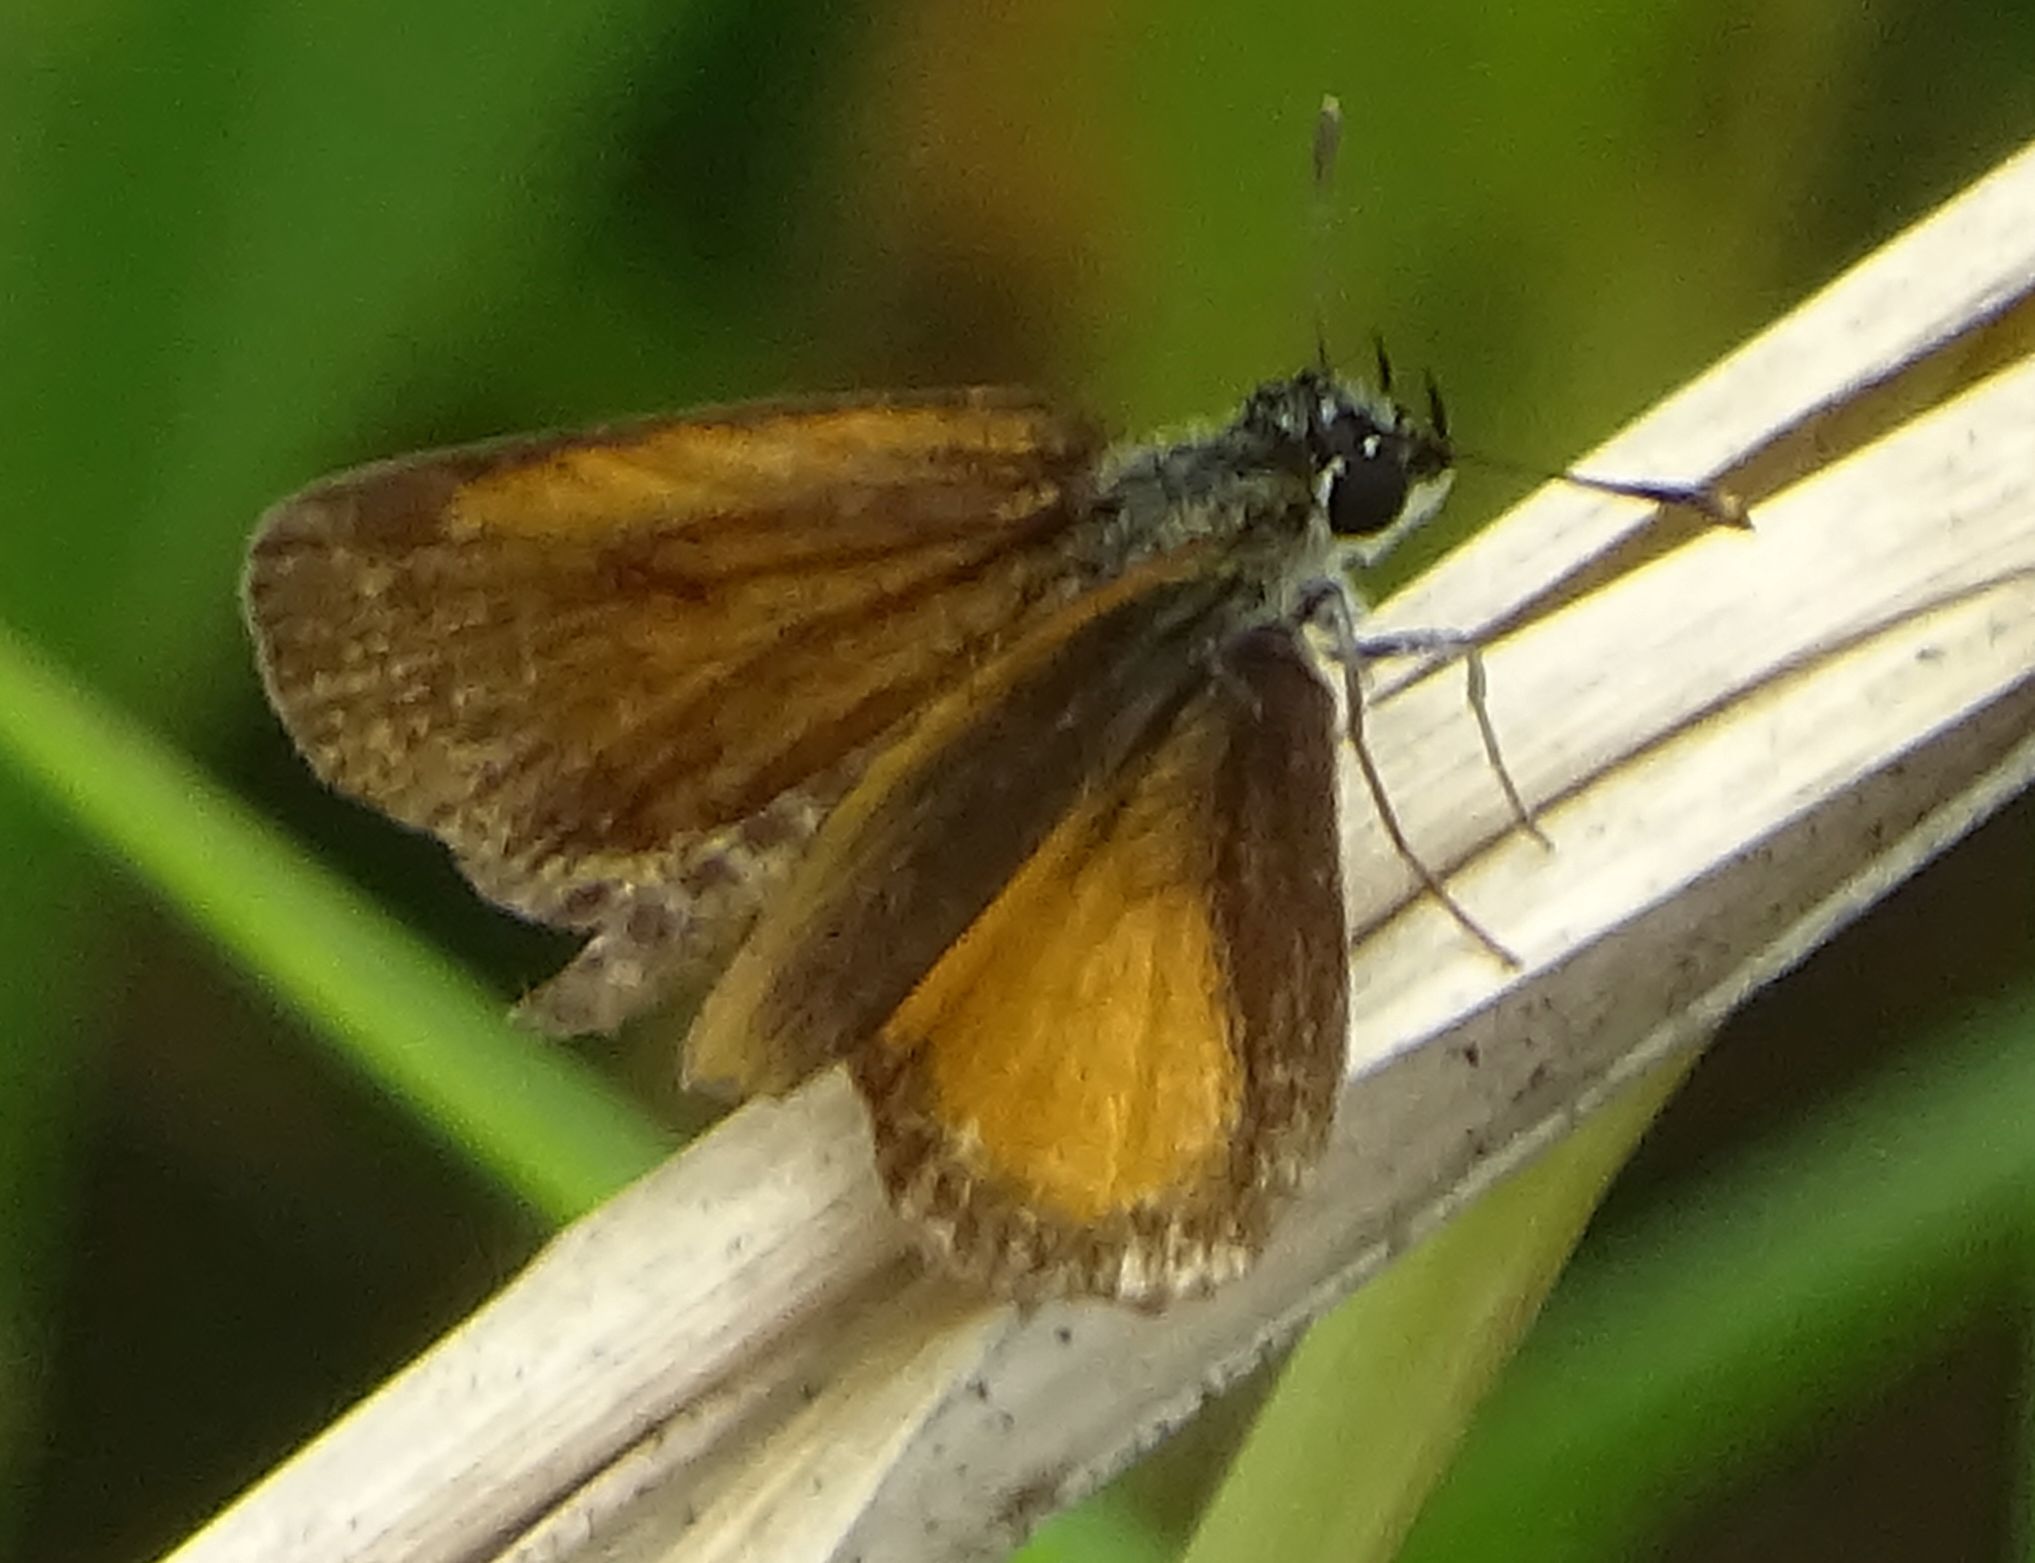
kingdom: Animalia
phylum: Arthropoda
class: Insecta
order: Lepidoptera
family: Hesperiidae
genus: Ancyloxypha
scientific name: Ancyloxypha numitor
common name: Least skipper
